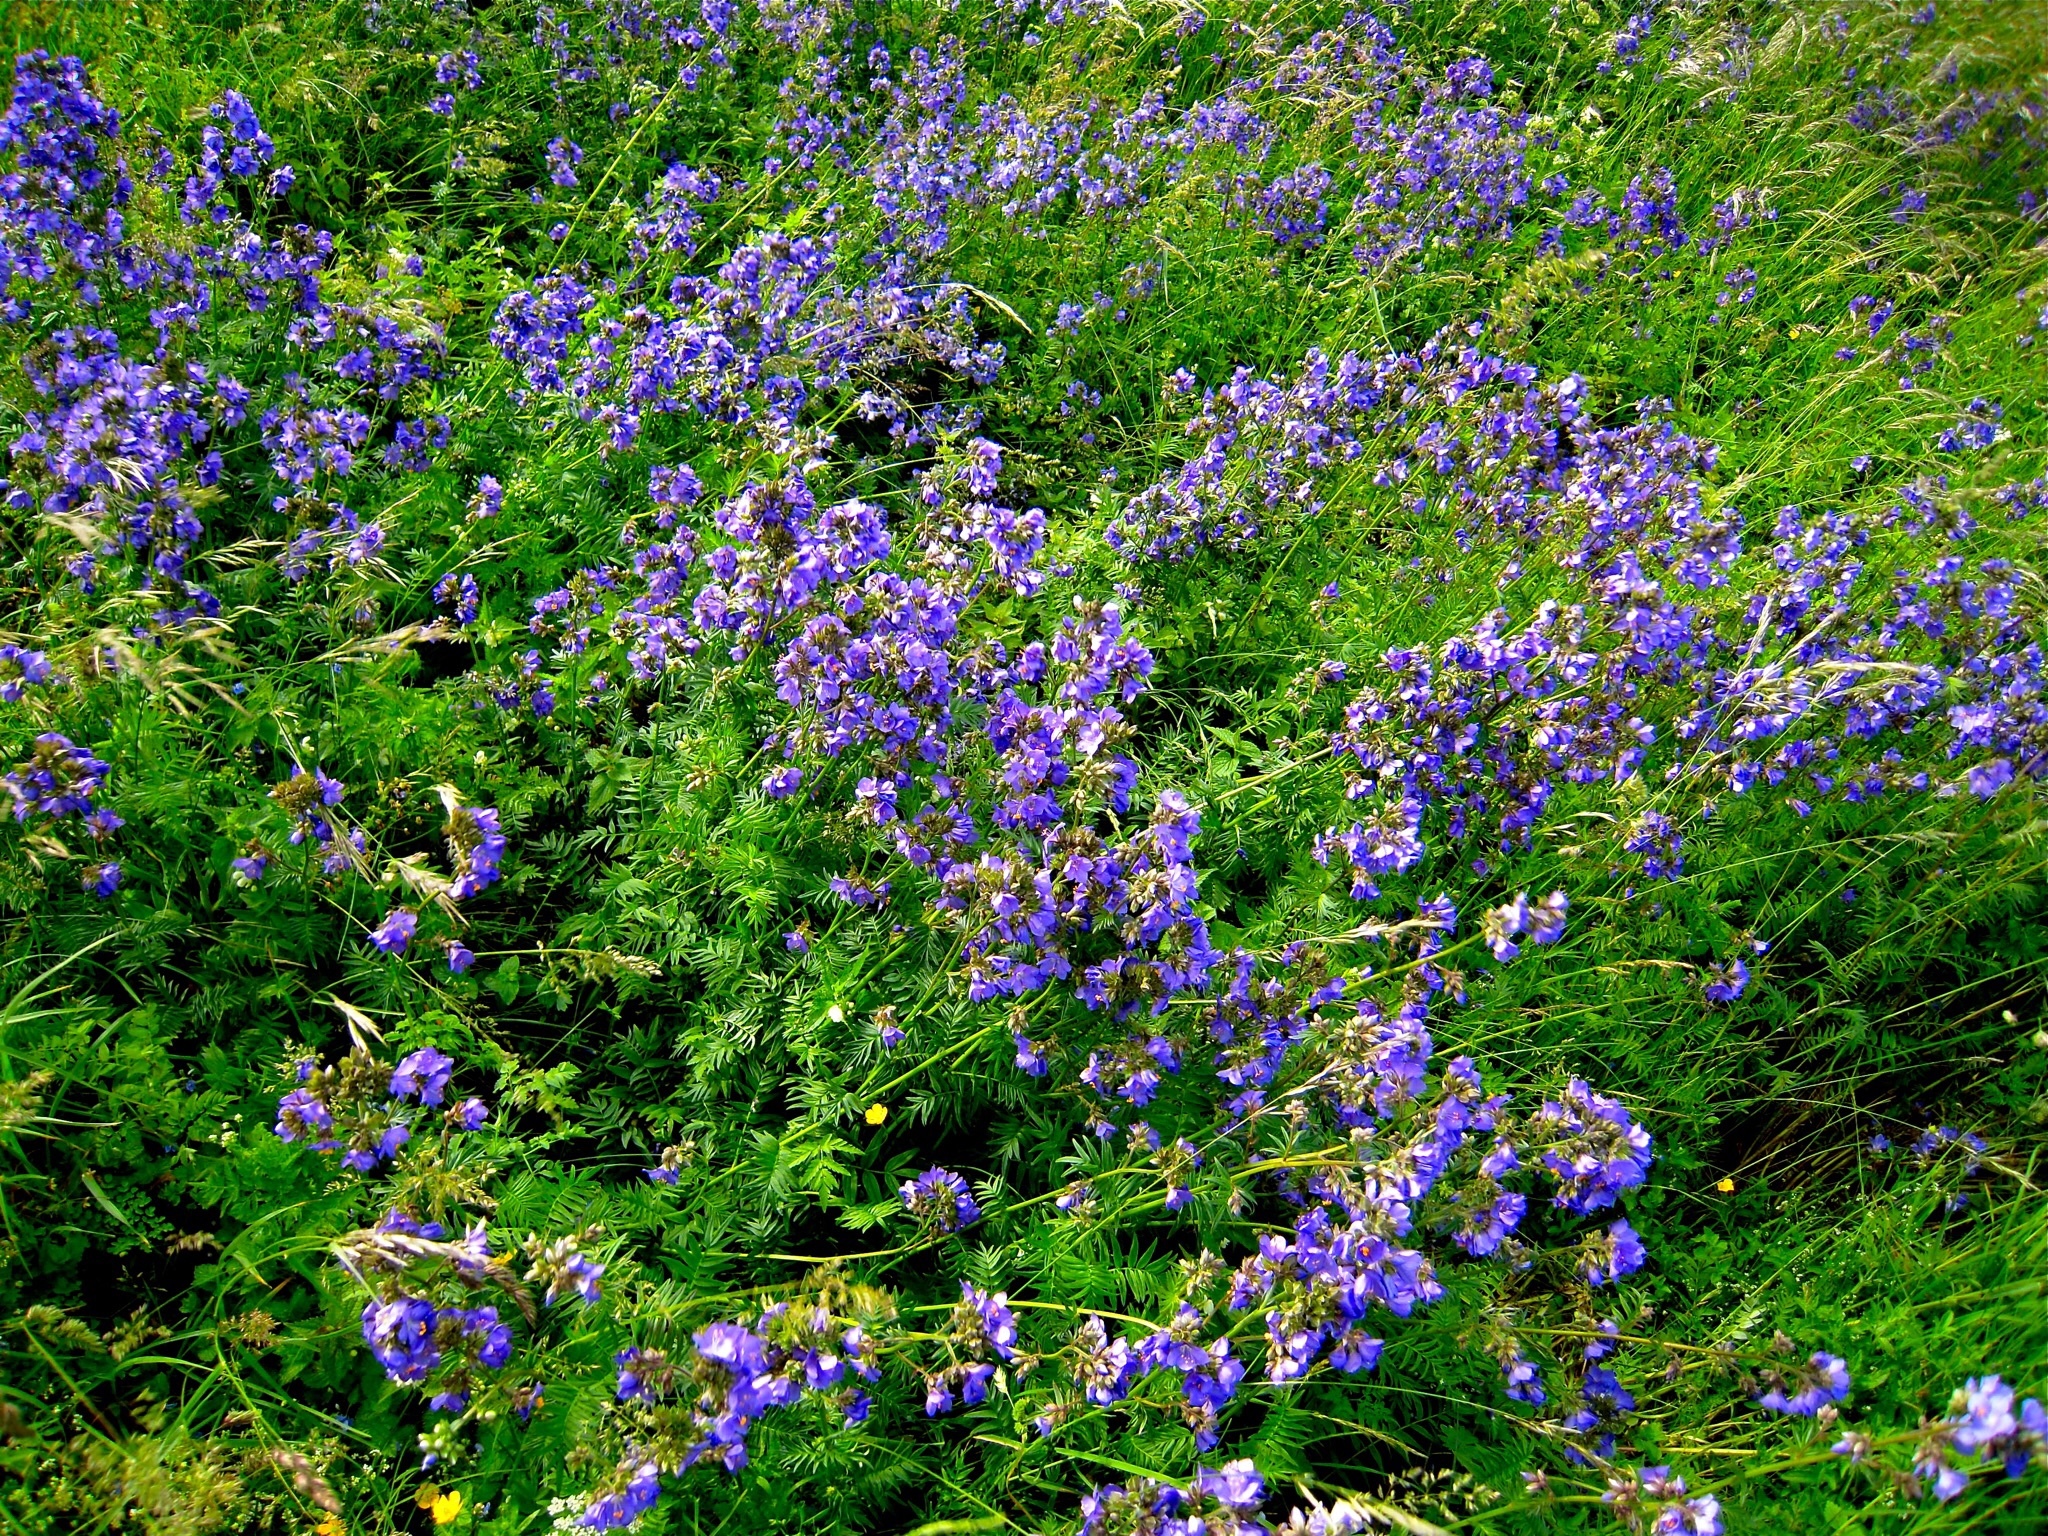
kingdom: Plantae
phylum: Tracheophyta
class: Magnoliopsida
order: Ericales
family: Polemoniaceae
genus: Polemonium
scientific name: Polemonium caeruleum
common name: Jacob's-ladder
